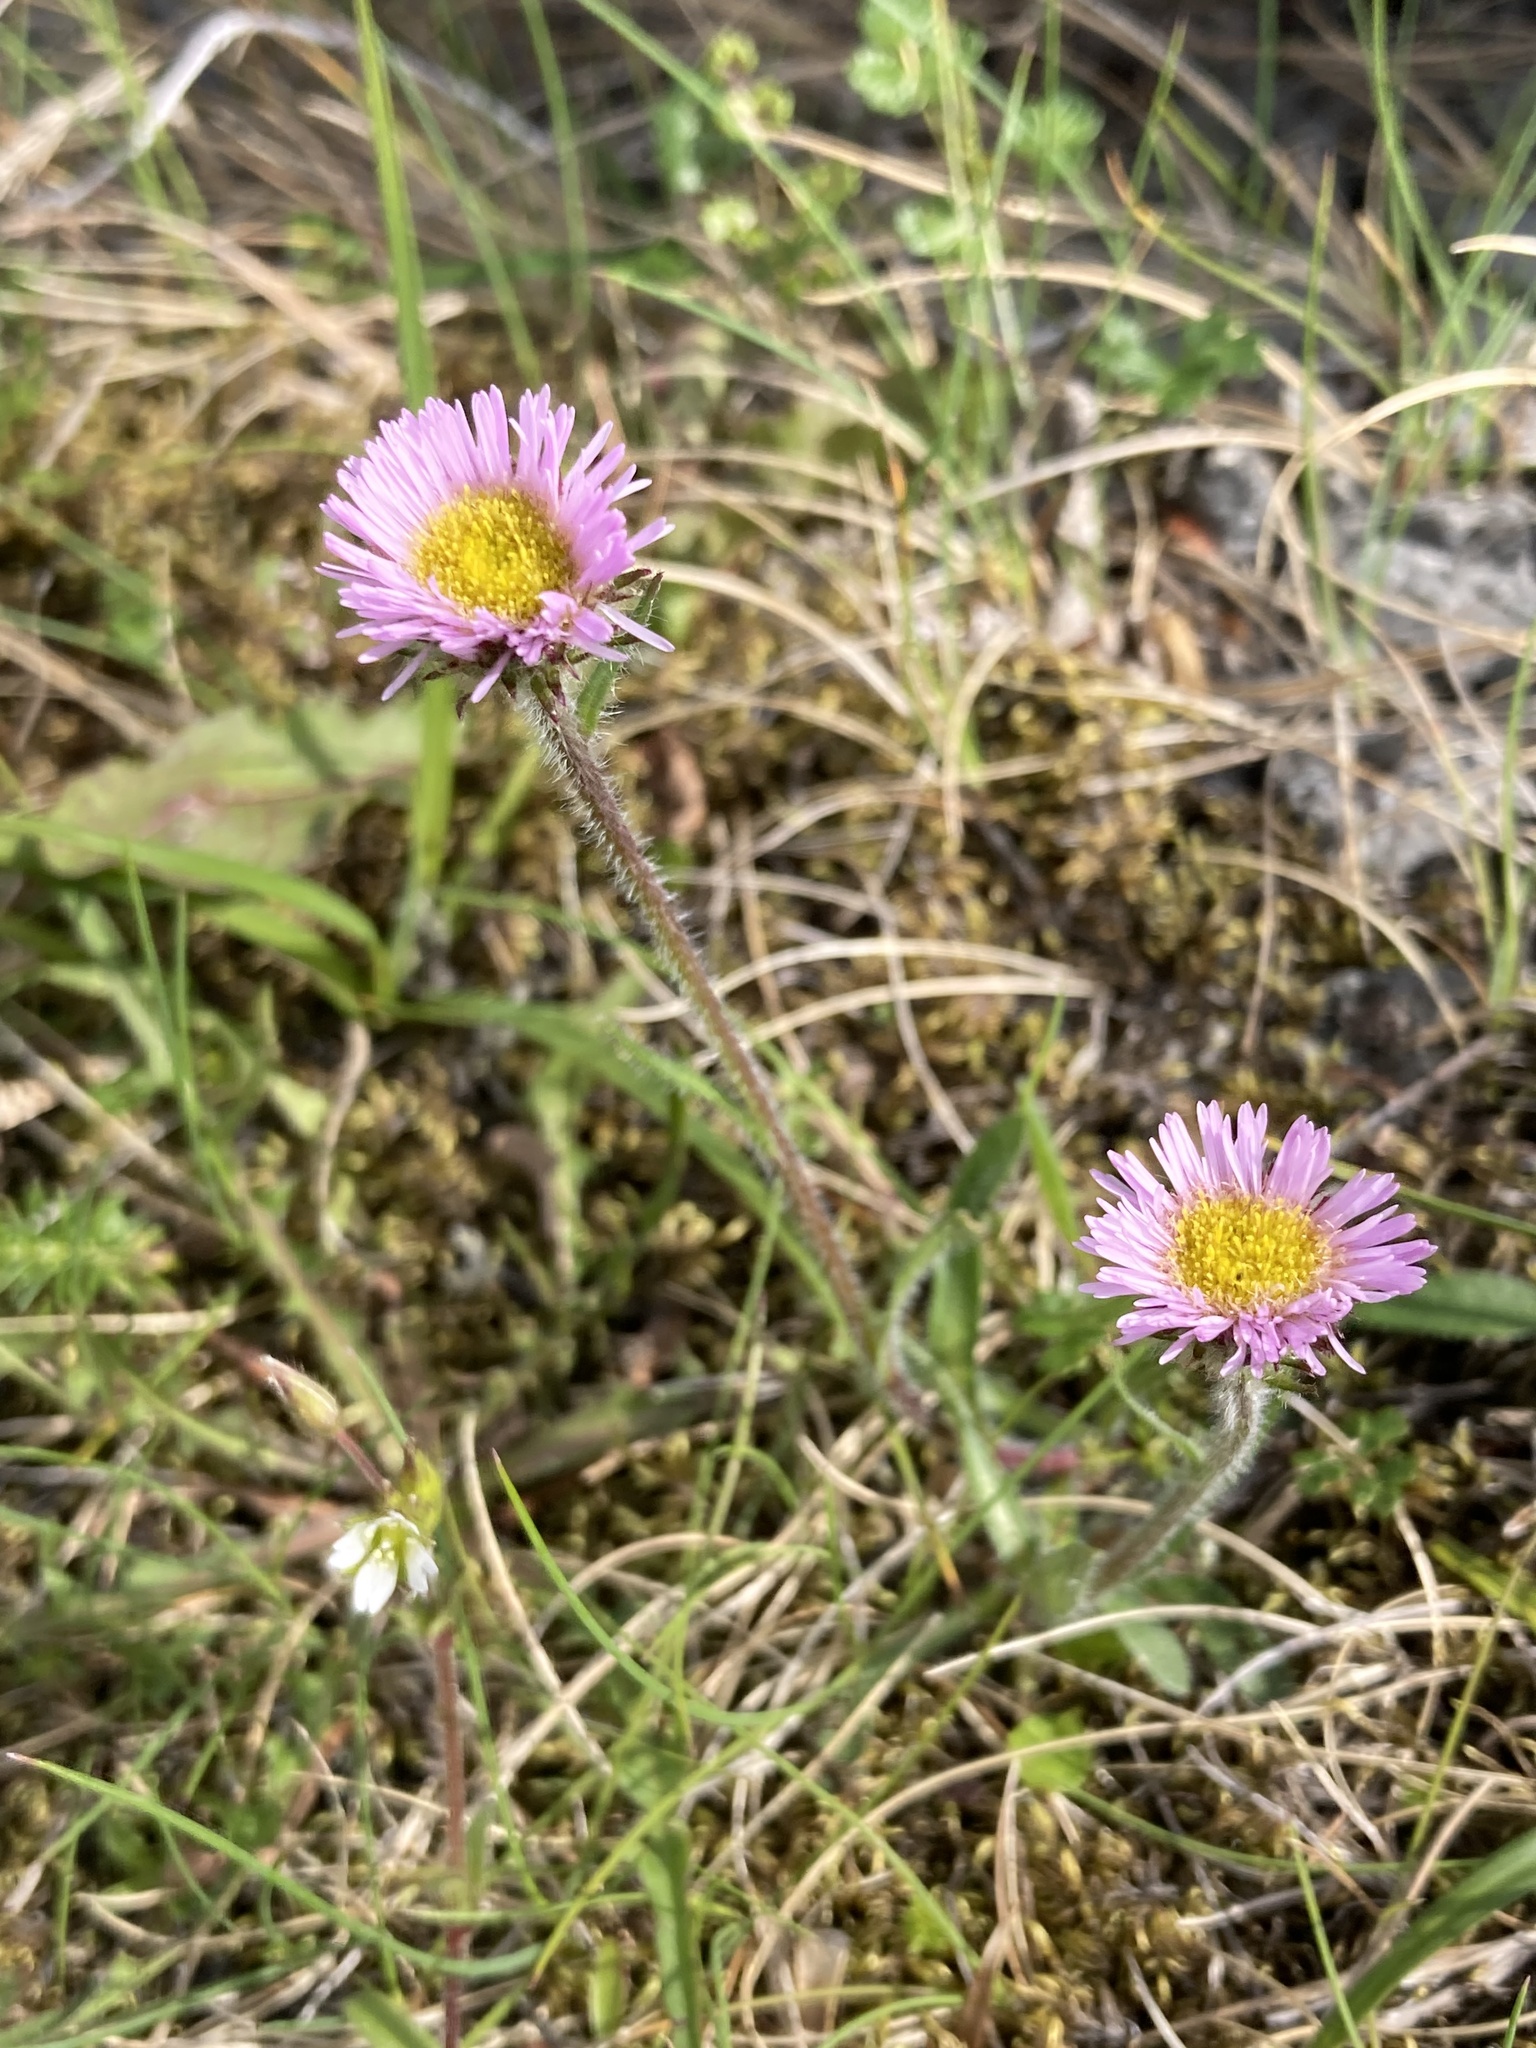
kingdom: Plantae
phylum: Tracheophyta
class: Magnoliopsida
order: Asterales
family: Asteraceae
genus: Erigeron
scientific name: Erigeron borealis
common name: Alpine fleabane
